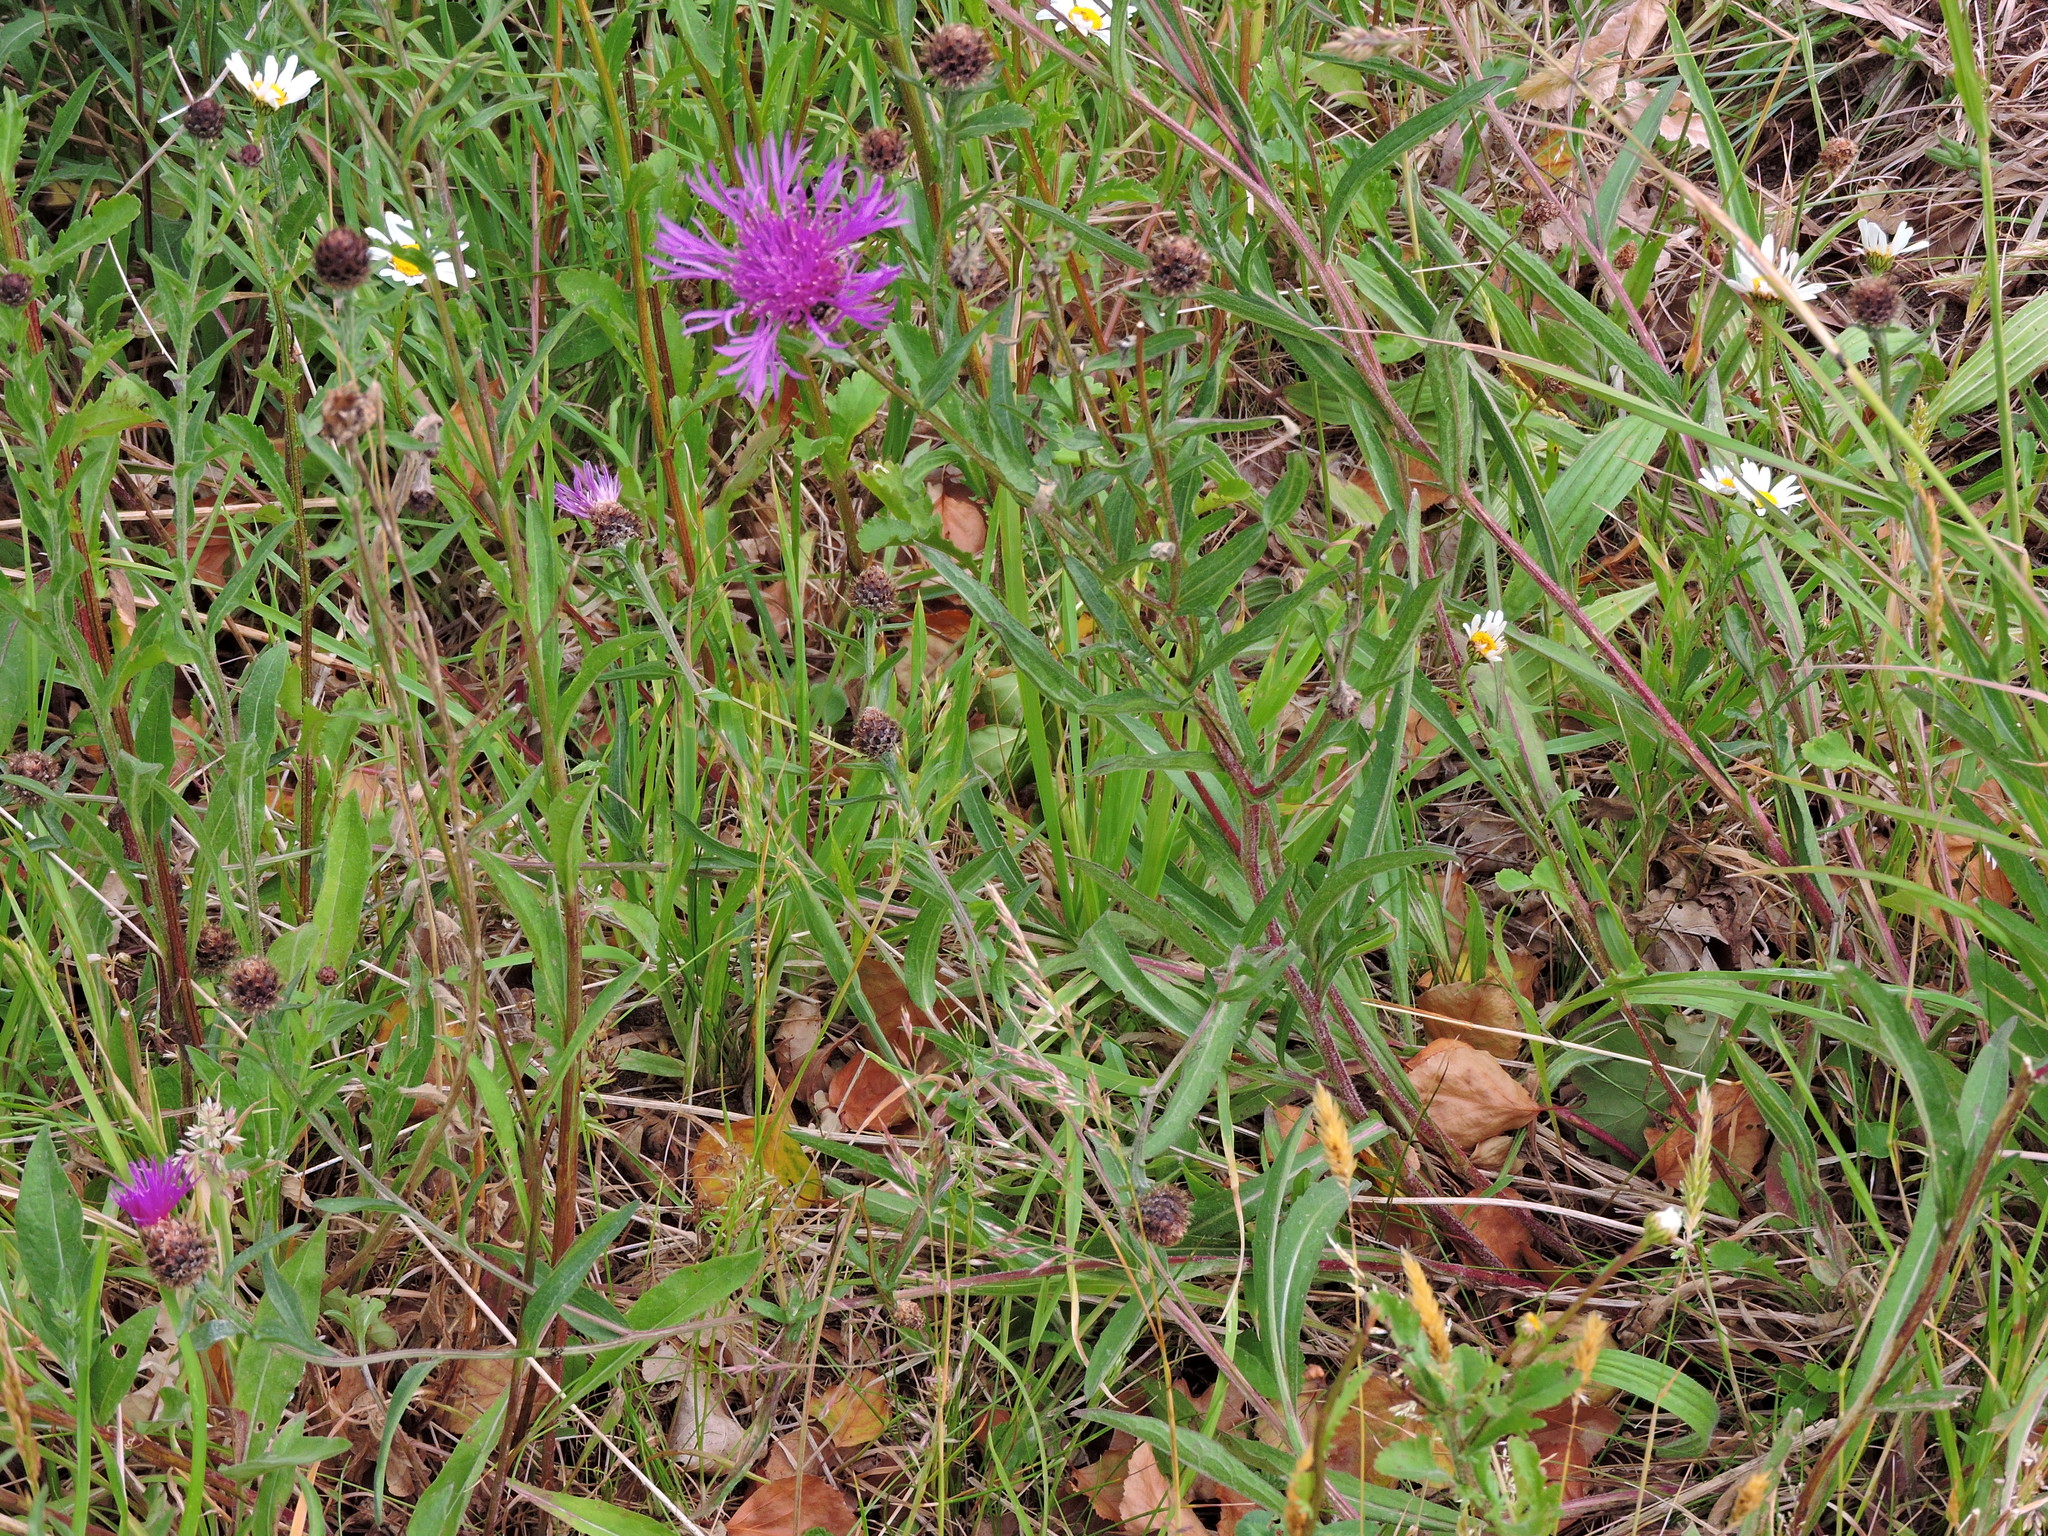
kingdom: Plantae
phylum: Tracheophyta
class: Magnoliopsida
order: Asterales
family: Asteraceae
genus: Centaurea
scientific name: Centaurea nigra
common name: Lesser knapweed
